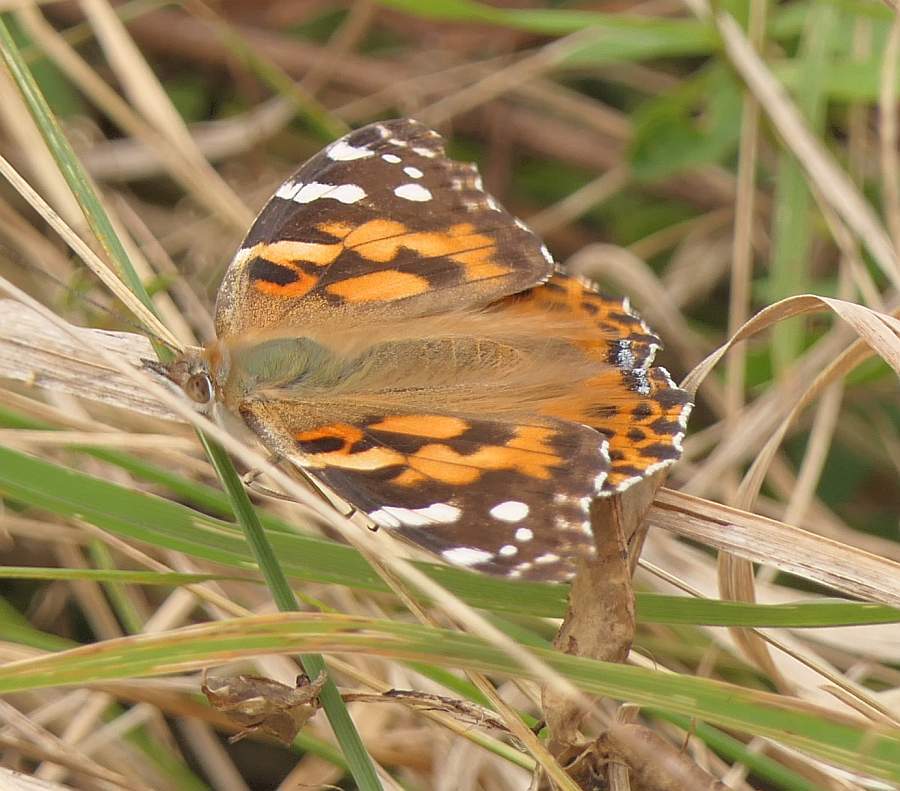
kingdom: Animalia
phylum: Arthropoda
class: Insecta
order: Lepidoptera
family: Nymphalidae
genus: Vanessa
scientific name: Vanessa cardui
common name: Painted lady
